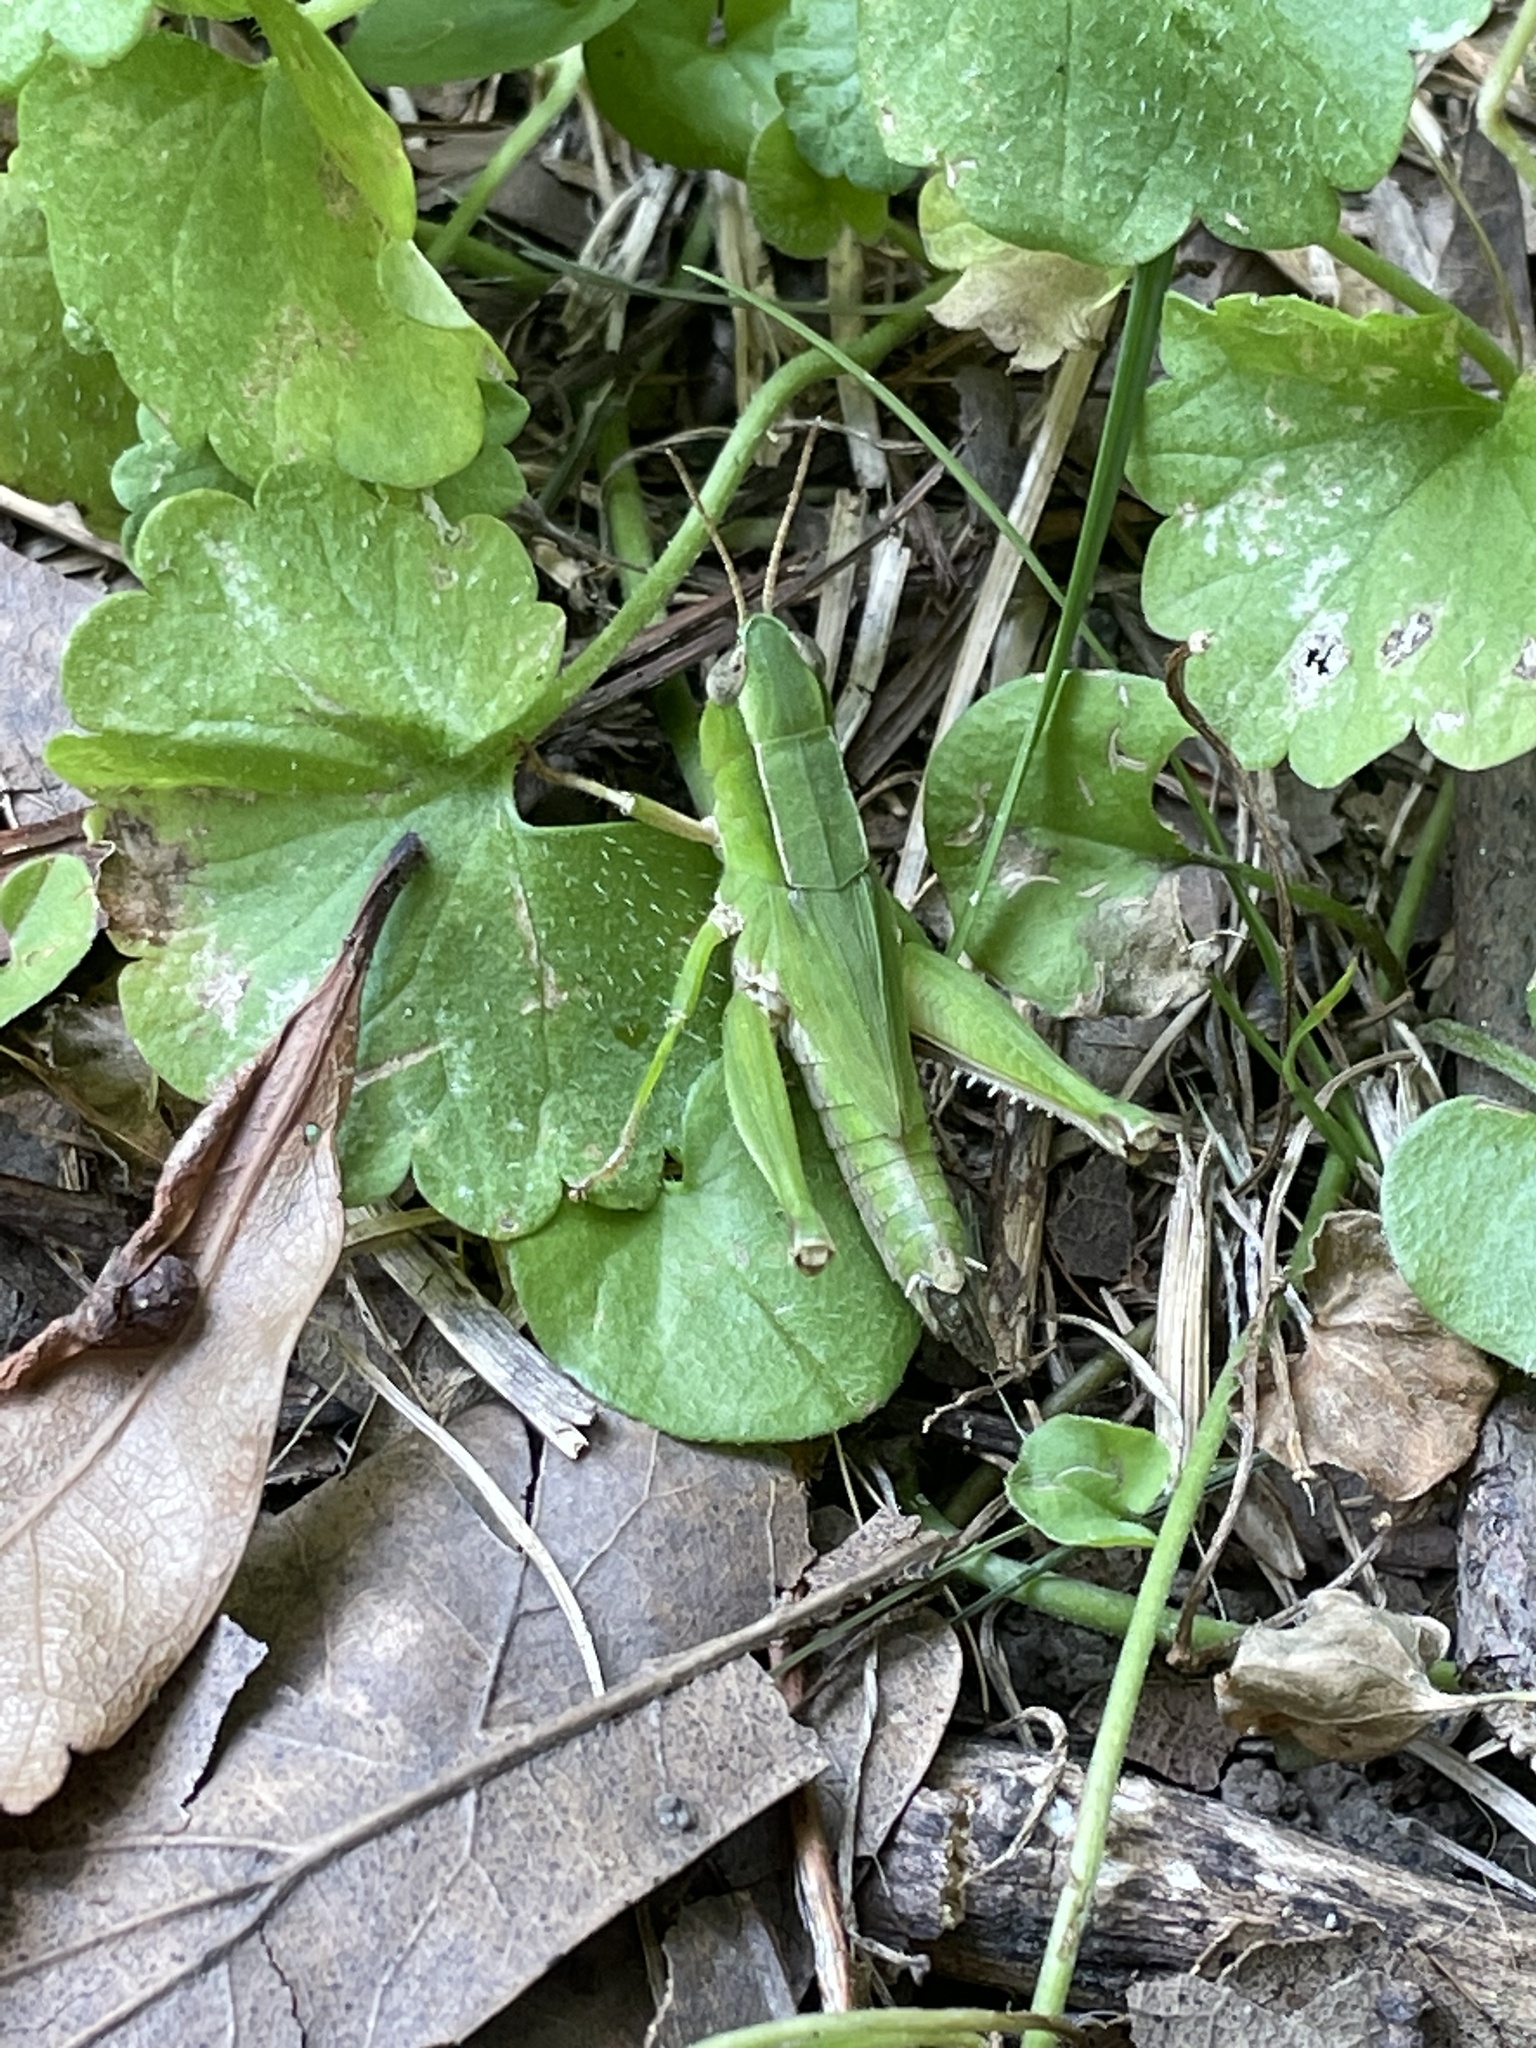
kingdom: Animalia
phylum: Arthropoda
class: Insecta
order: Orthoptera
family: Acrididae
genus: Dichromorpha
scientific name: Dichromorpha viridis
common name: Short-winged green grasshopper
